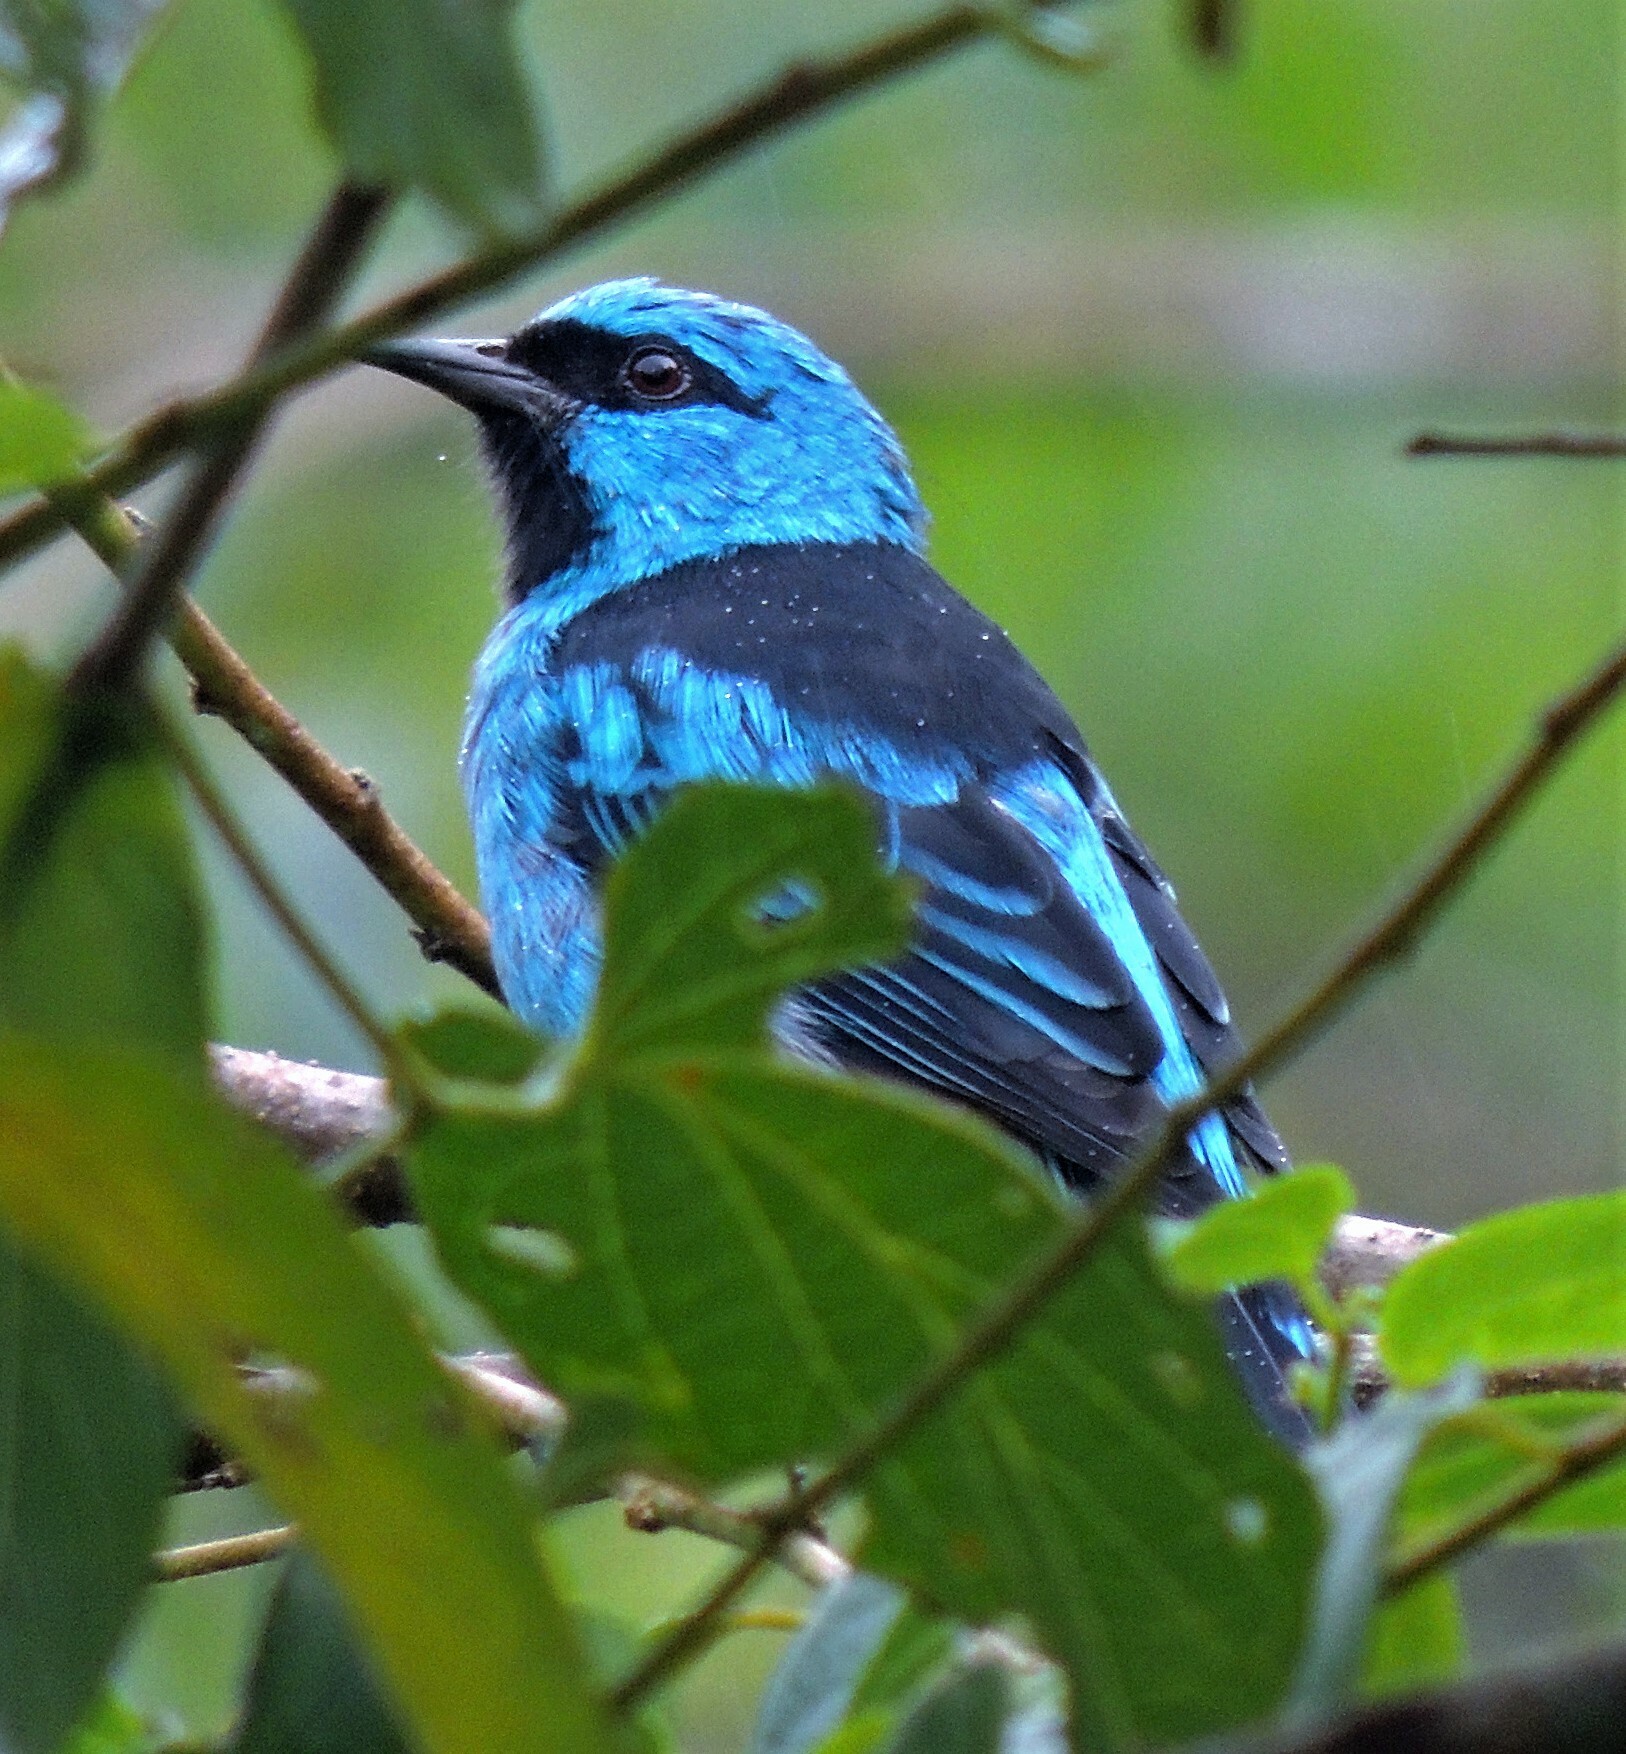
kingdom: Animalia
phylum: Chordata
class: Aves
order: Passeriformes
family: Thraupidae
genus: Dacnis
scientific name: Dacnis cayana
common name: Blue dacnis
